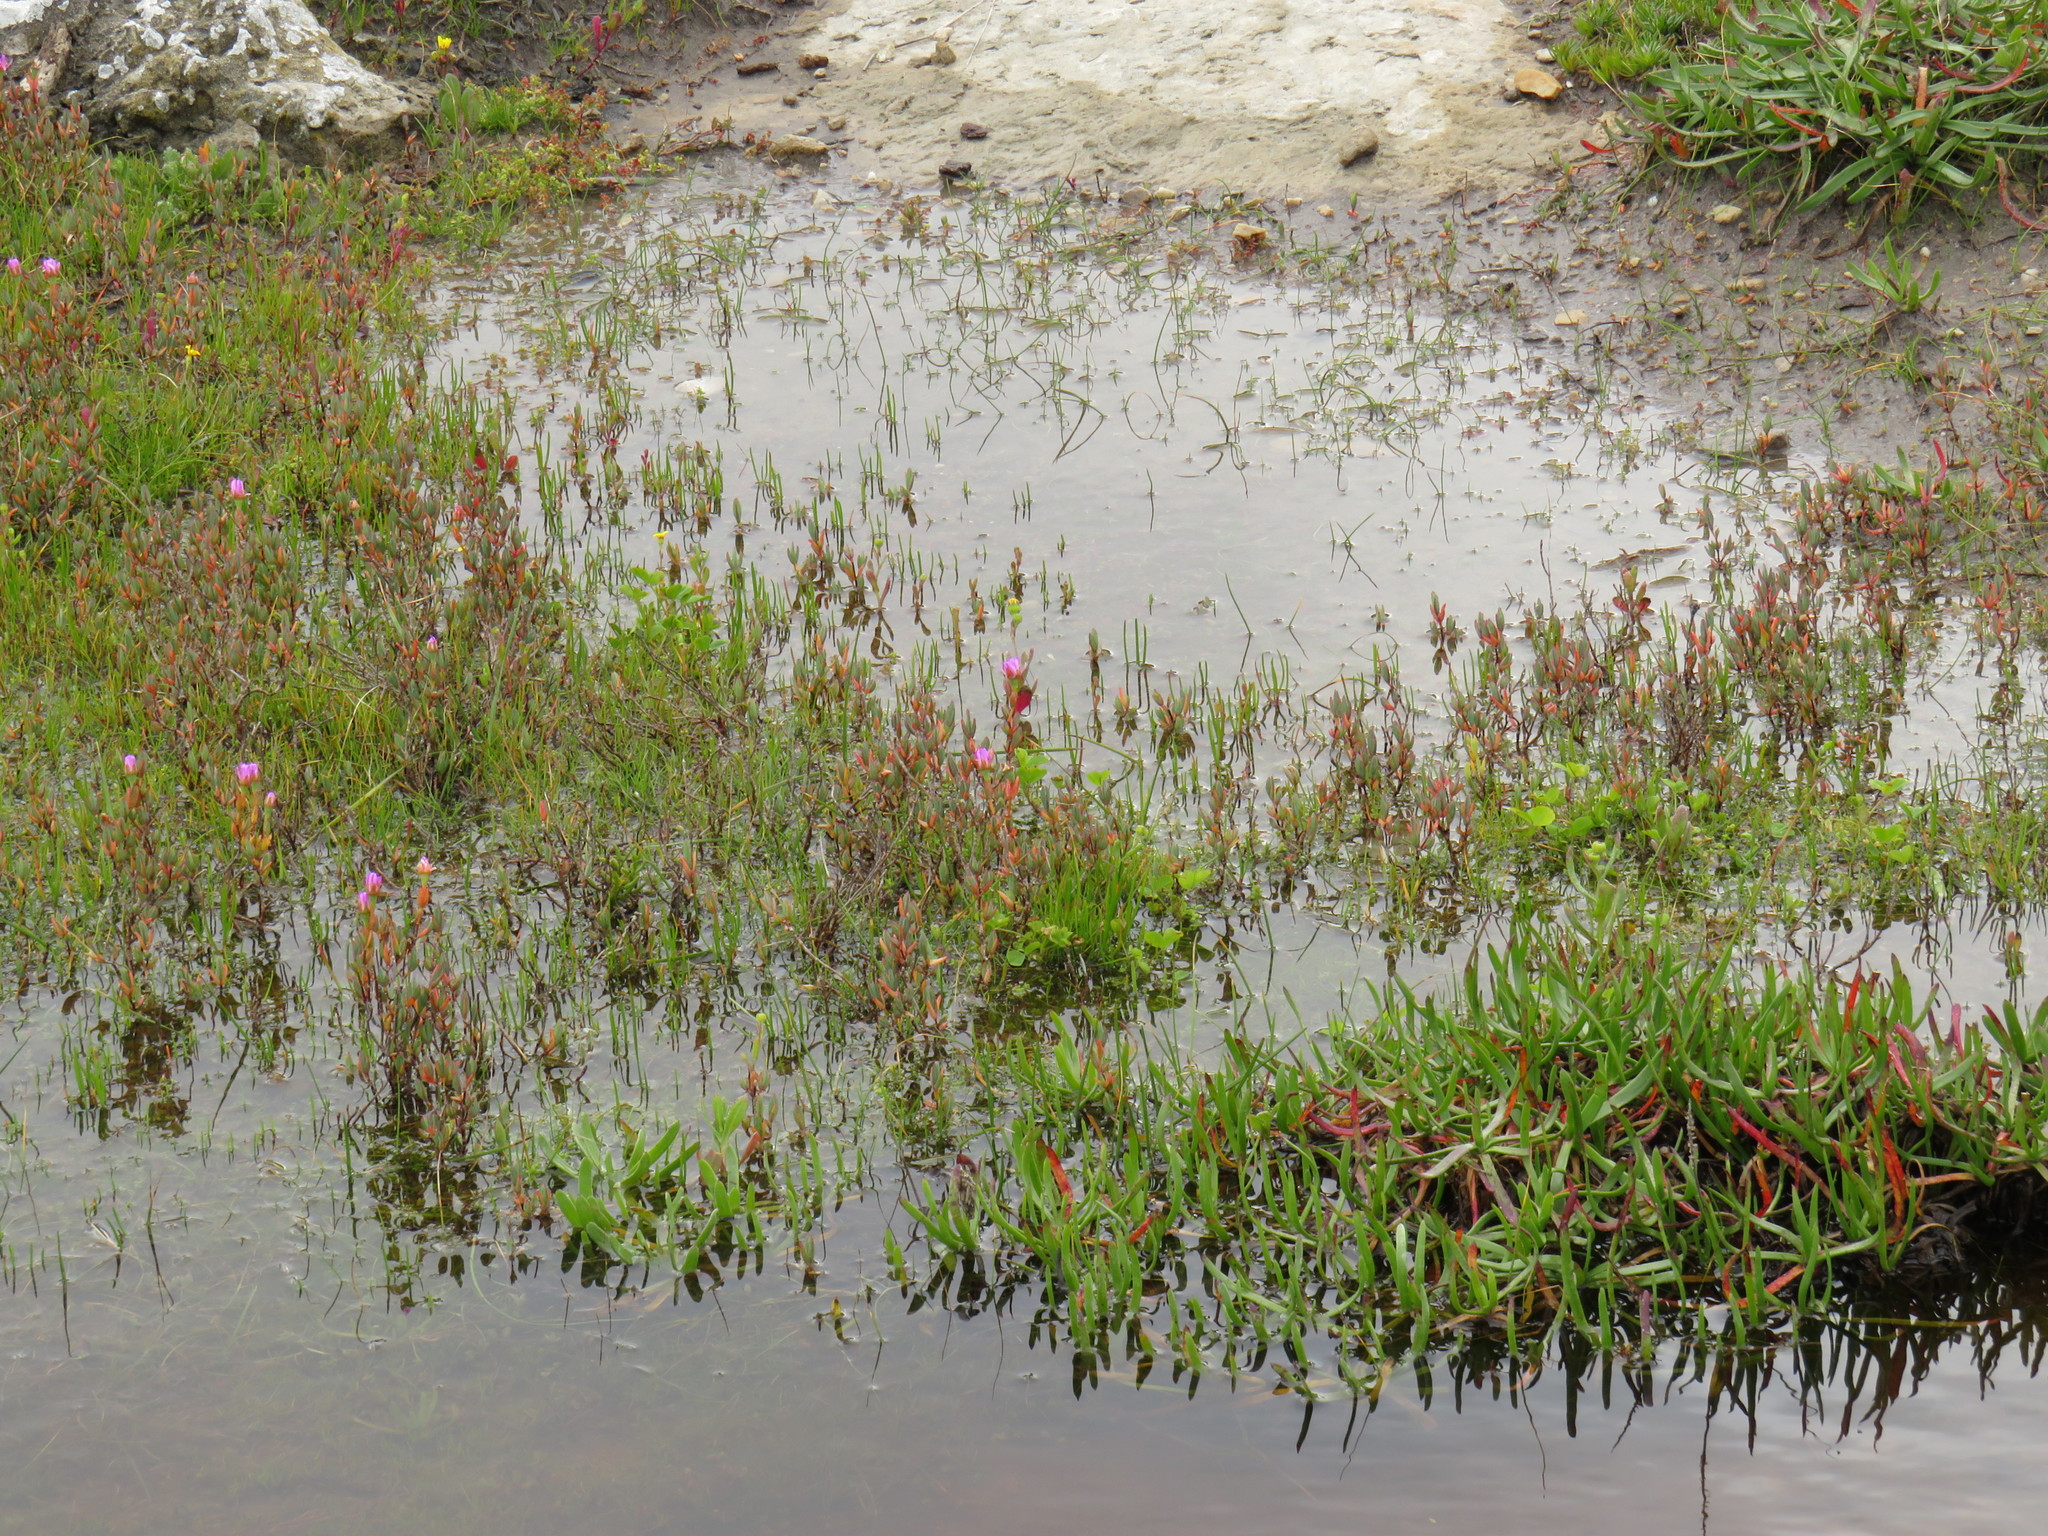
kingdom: Plantae
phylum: Tracheophyta
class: Magnoliopsida
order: Caryophyllales
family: Aizoaceae
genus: Lampranthus
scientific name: Lampranthus calcaratus
